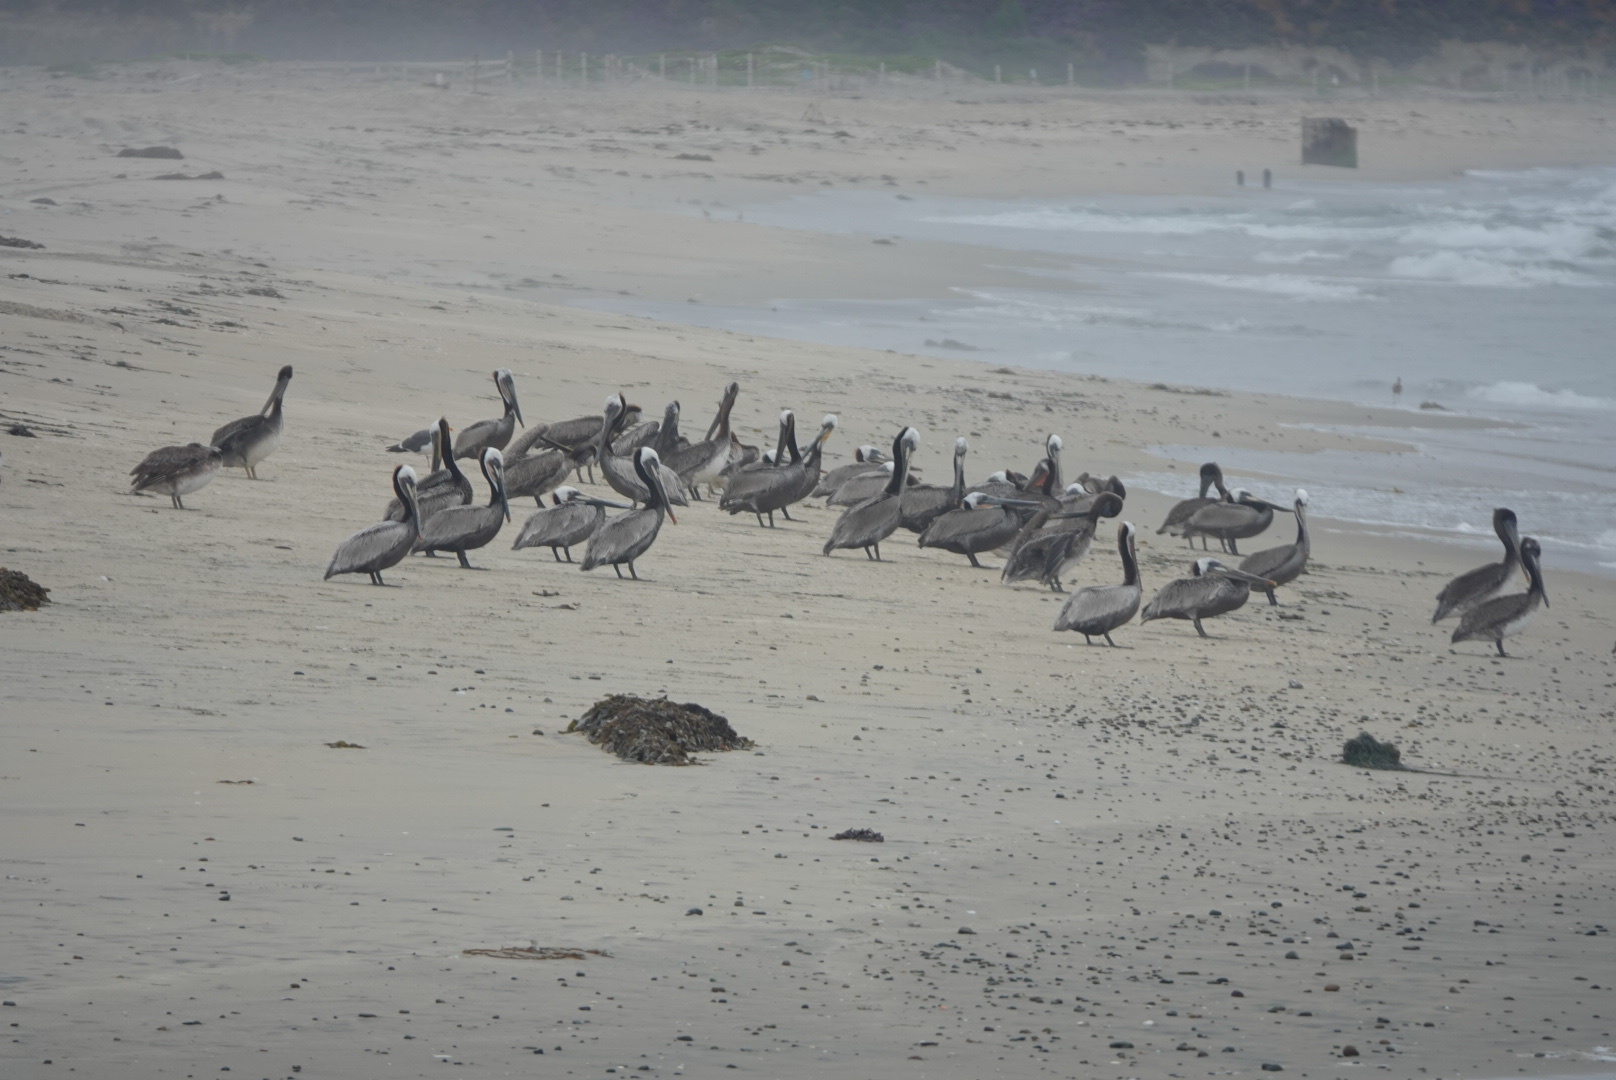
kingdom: Animalia
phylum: Chordata
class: Aves
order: Pelecaniformes
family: Pelecanidae
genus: Pelecanus
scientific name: Pelecanus occidentalis
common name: Brown pelican
